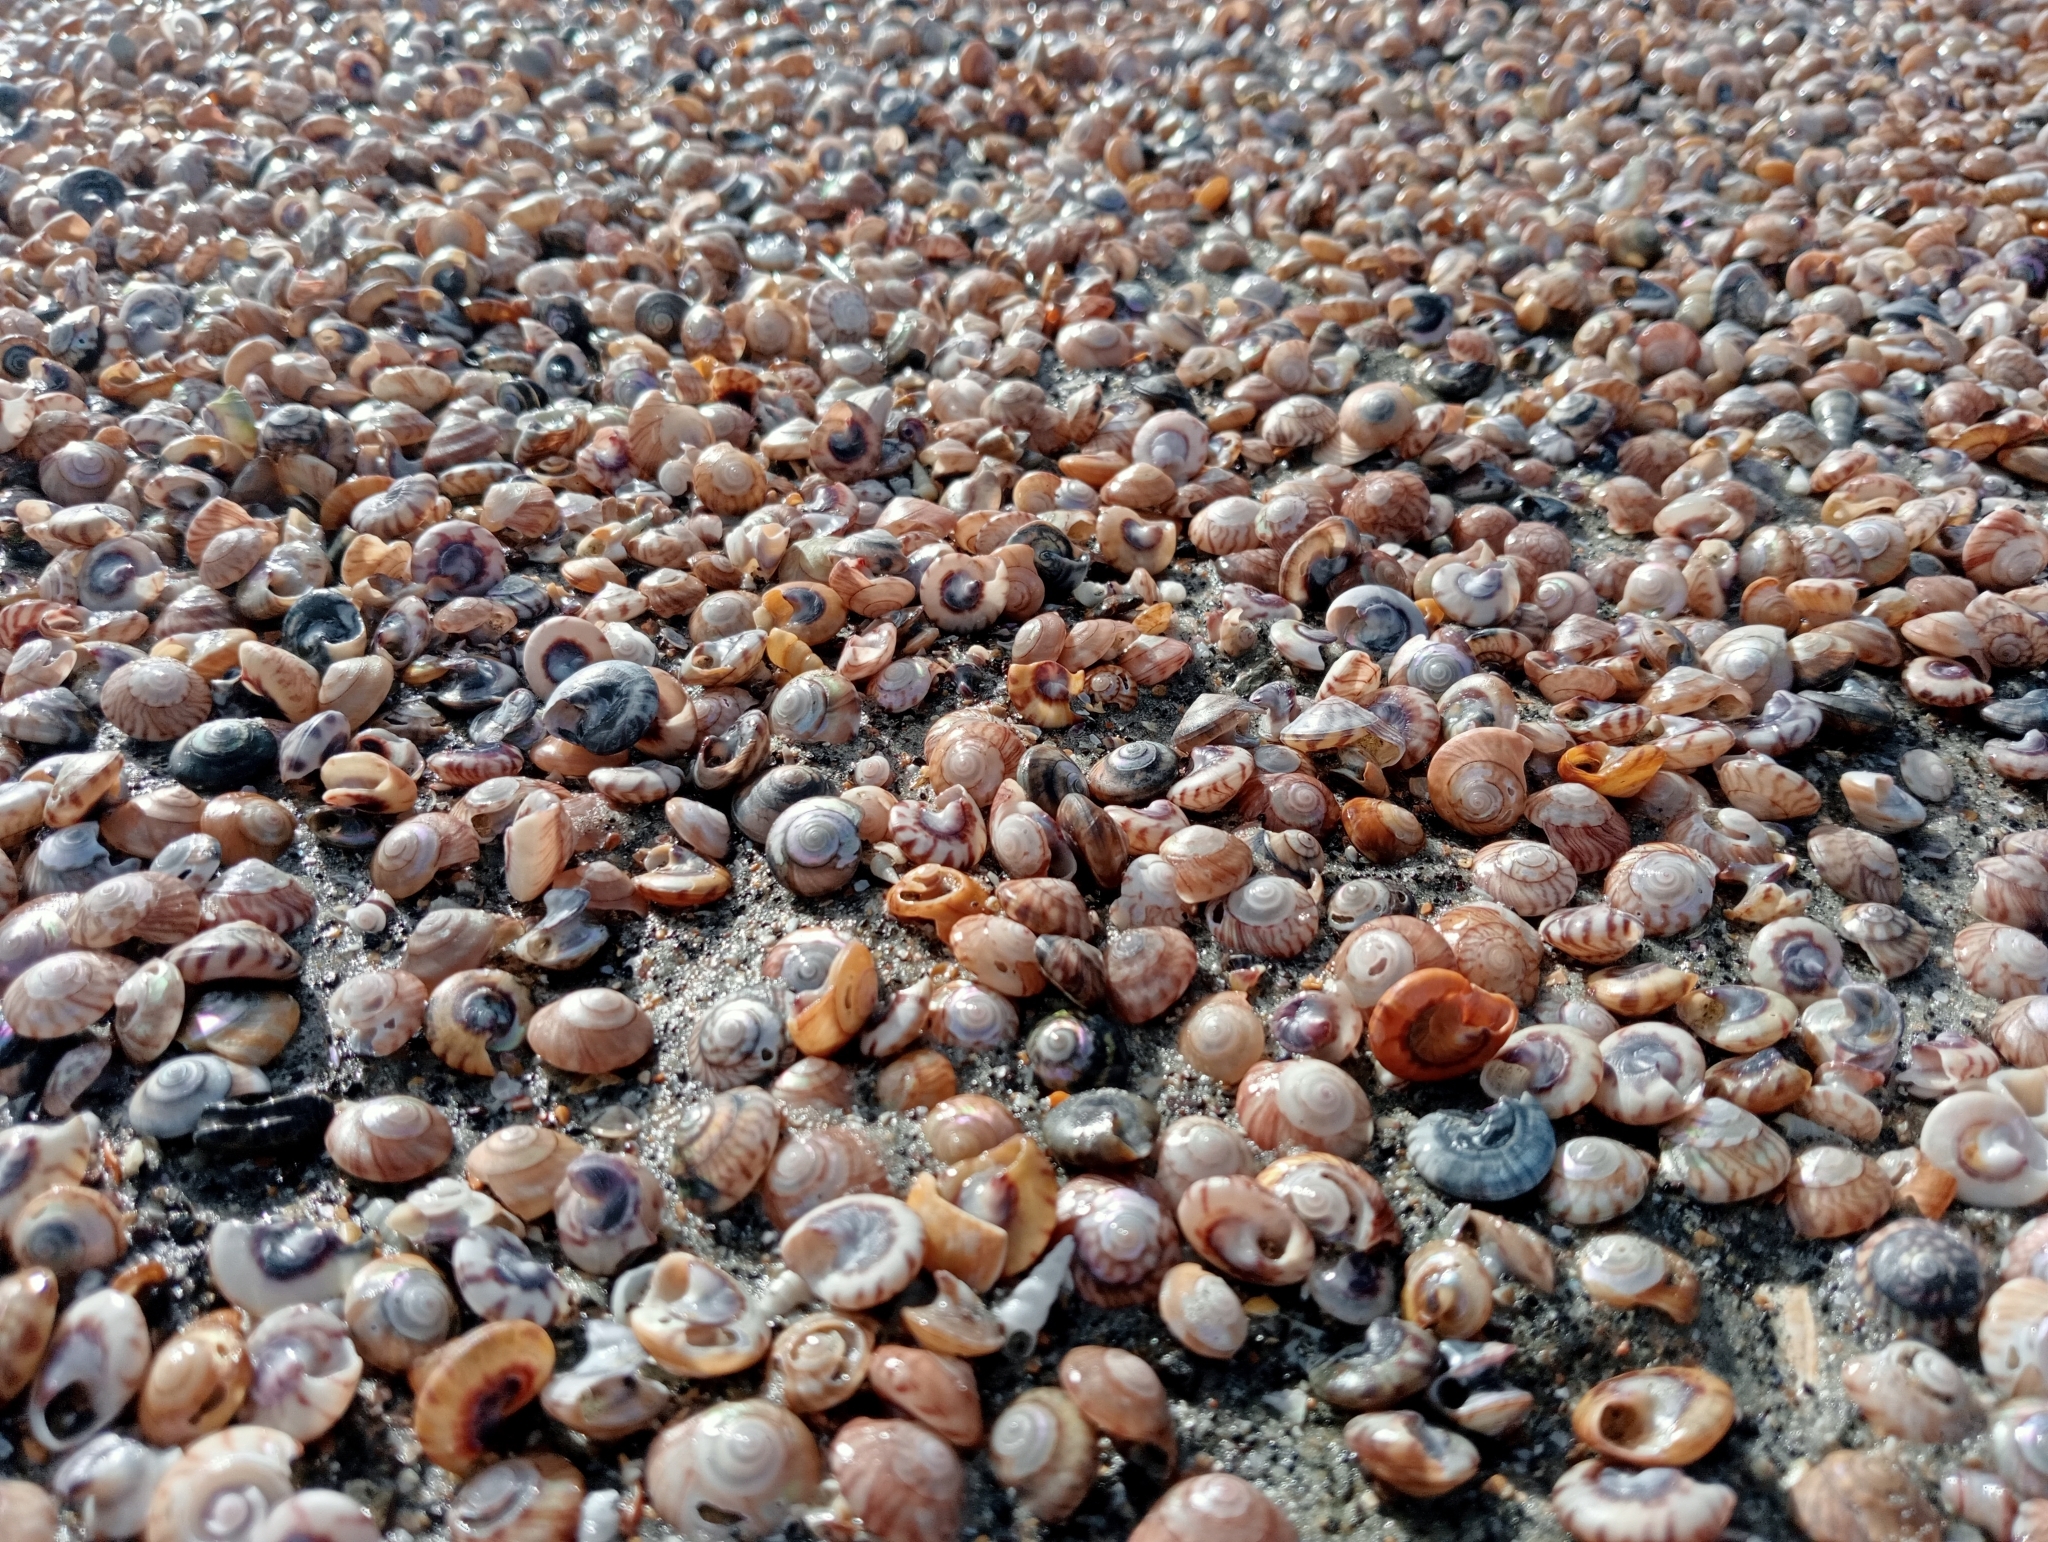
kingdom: Animalia
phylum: Mollusca
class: Gastropoda
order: Trochida
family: Trochidae
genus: Zethalia
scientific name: Zethalia zelandica
